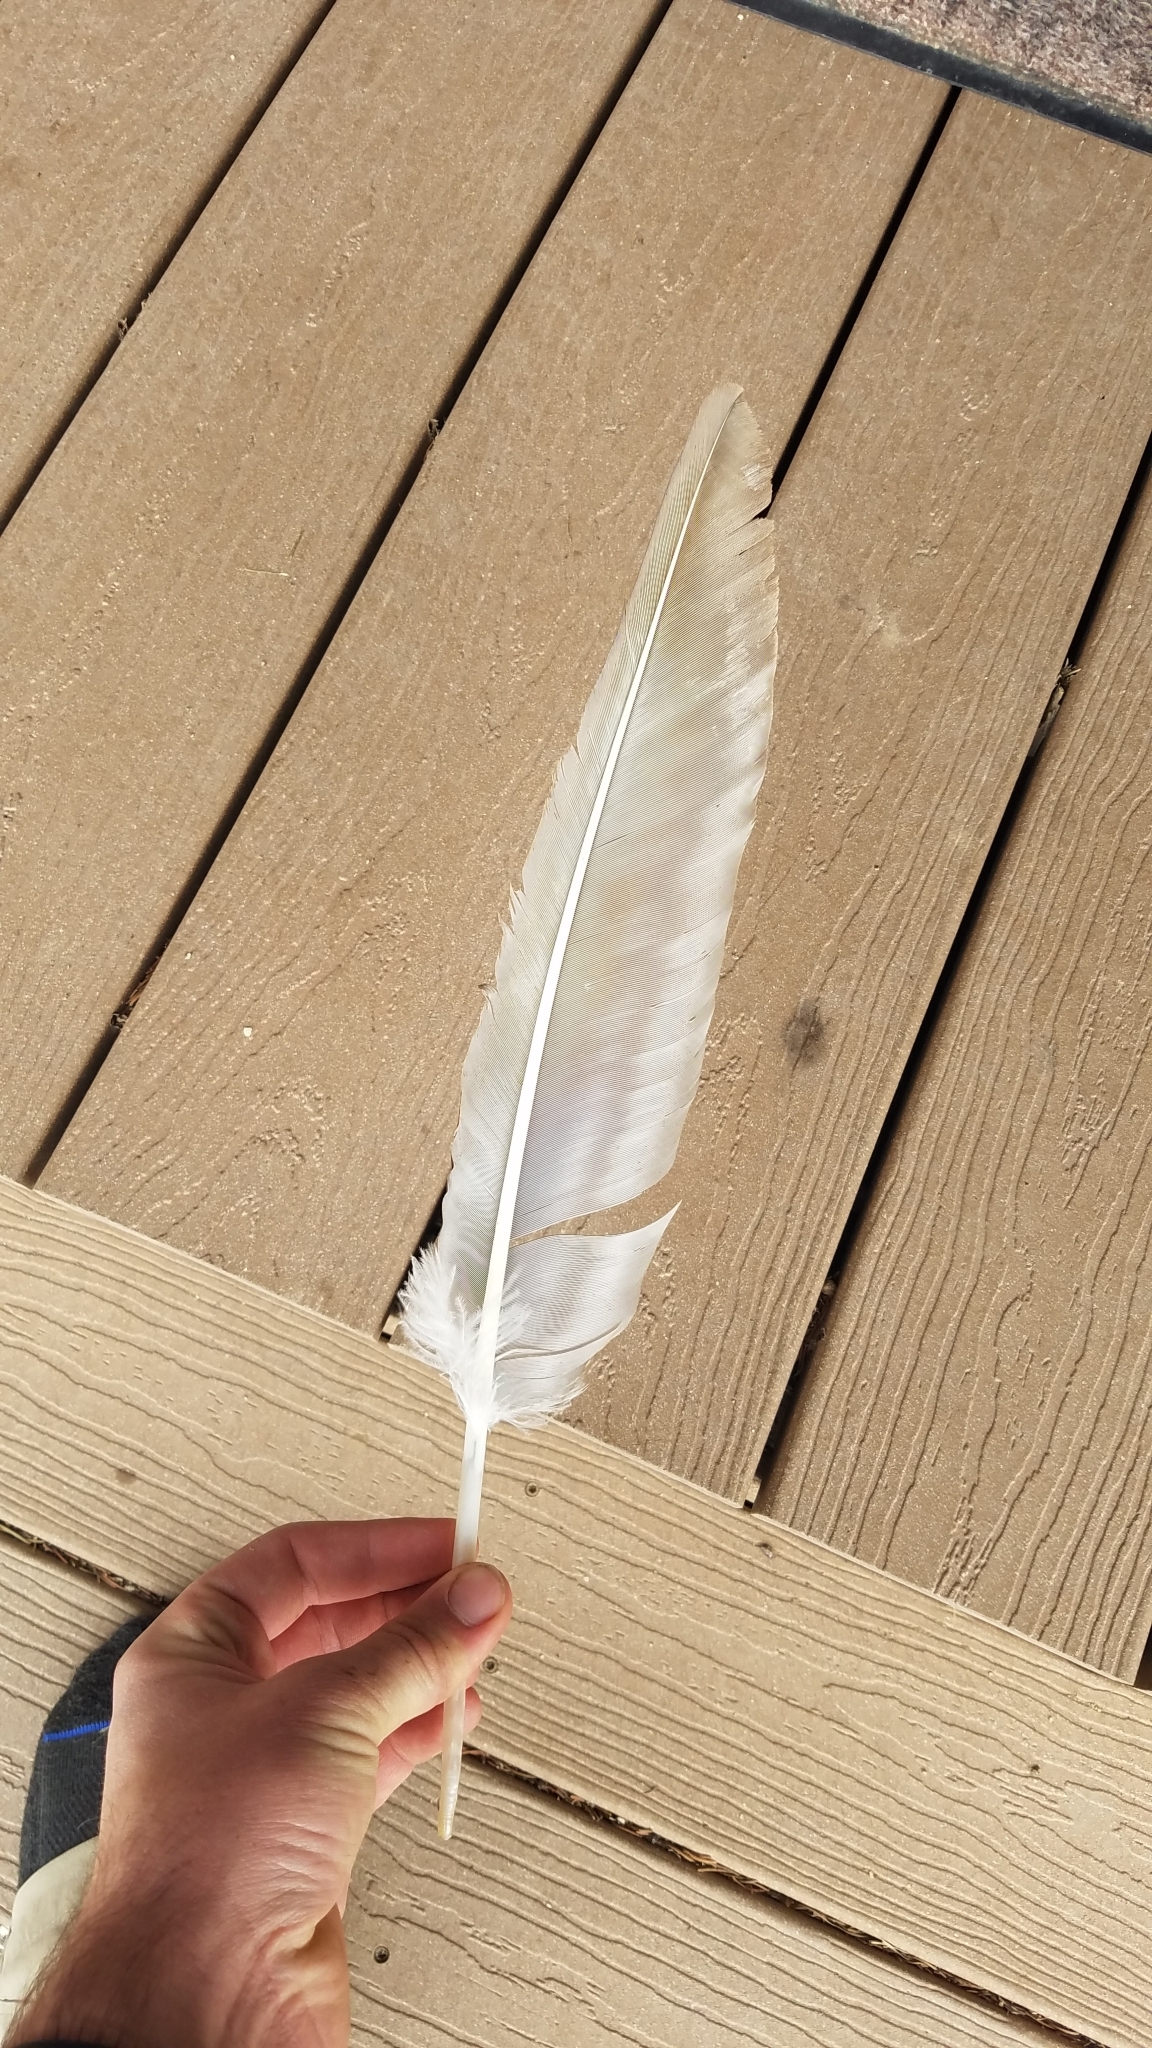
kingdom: Animalia
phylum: Chordata
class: Aves
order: Accipitriformes
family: Cathartidae
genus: Cathartes
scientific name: Cathartes aura
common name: Turkey vulture
